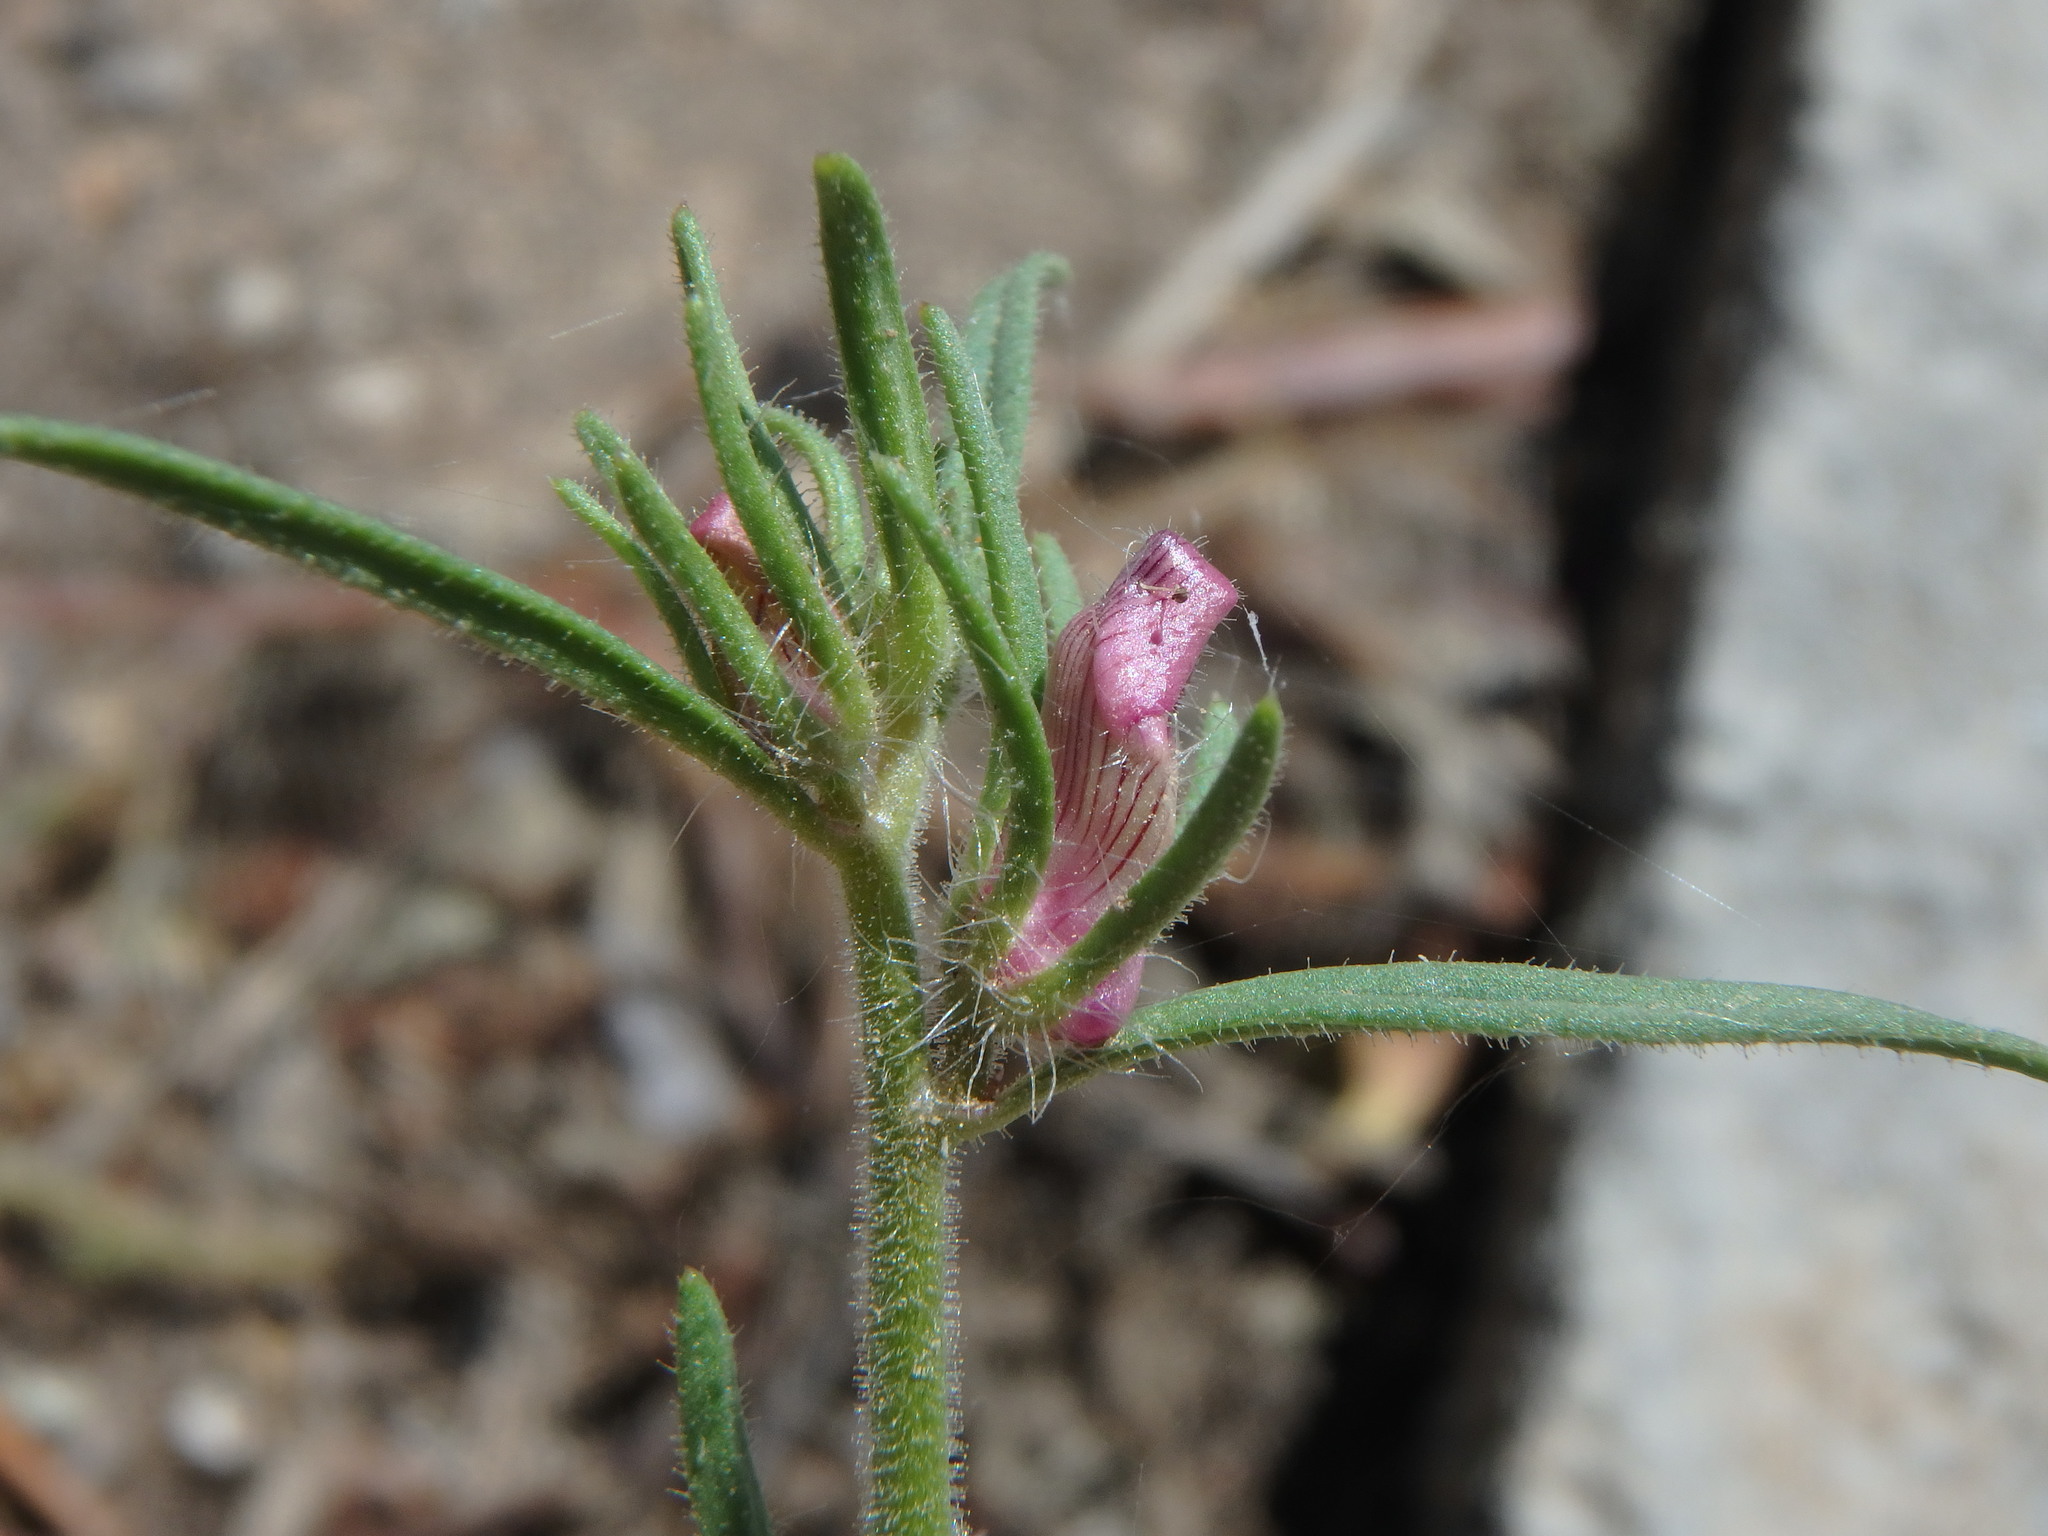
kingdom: Plantae
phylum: Tracheophyta
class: Magnoliopsida
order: Lamiales
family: Plantaginaceae
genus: Misopates
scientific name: Misopates orontium
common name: Weasel's-snout
